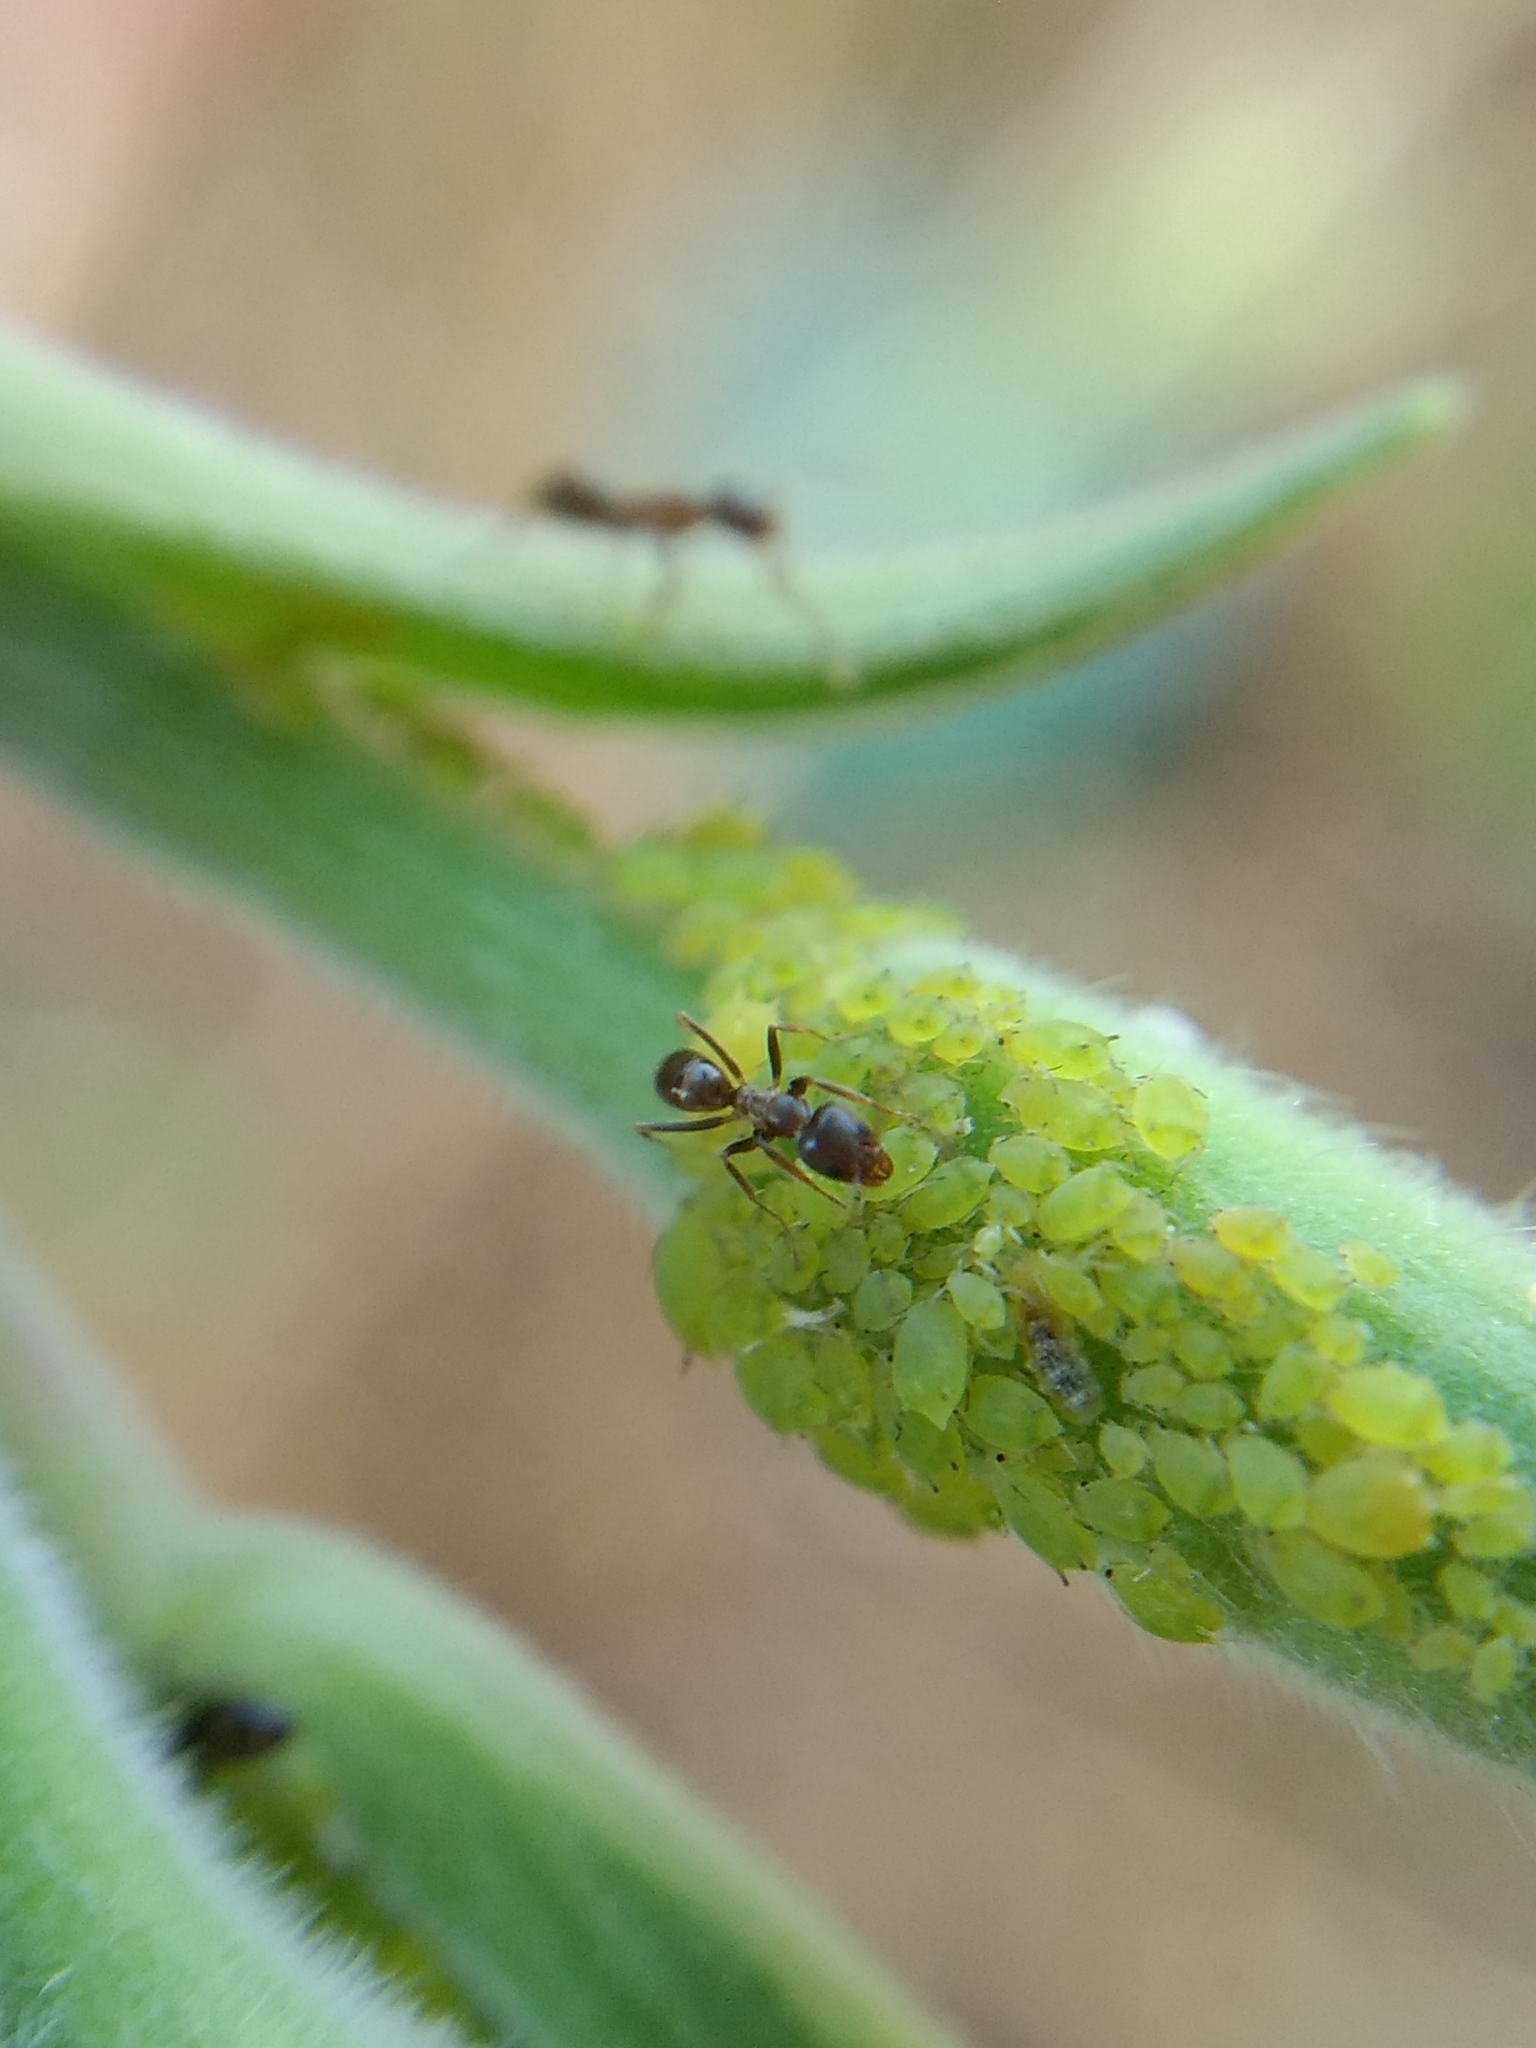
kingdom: Animalia
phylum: Arthropoda
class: Insecta
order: Hymenoptera
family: Formicidae
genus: Linepithema
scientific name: Linepithema humile
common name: Argentine ant
